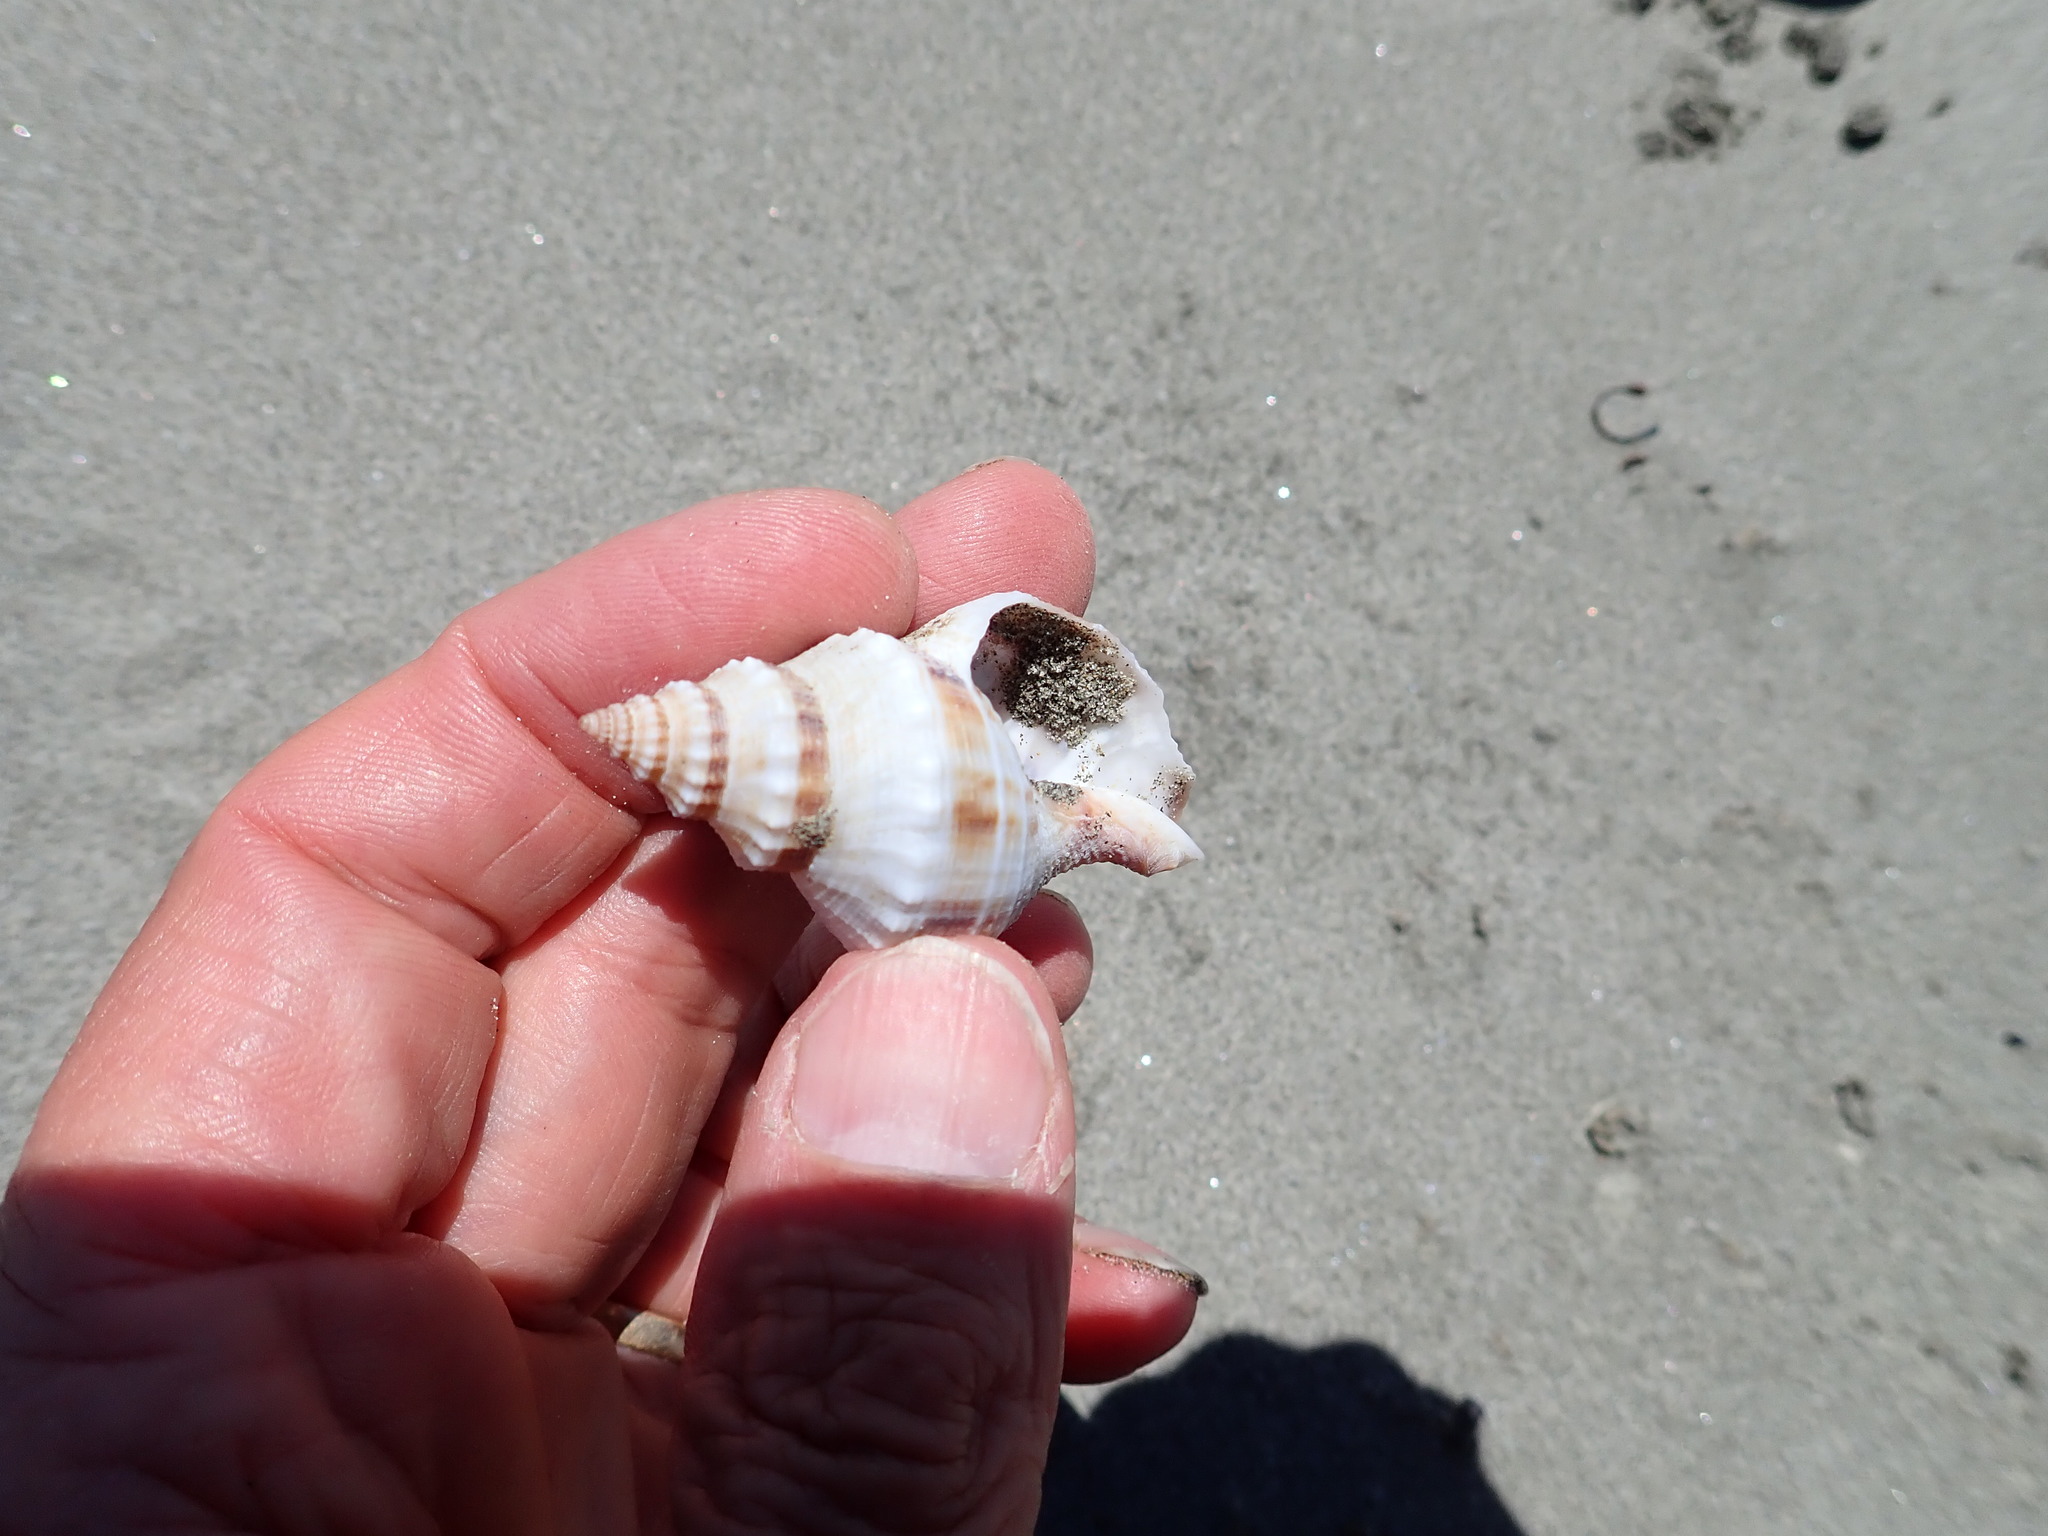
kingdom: Animalia
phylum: Mollusca
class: Gastropoda
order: Neogastropoda
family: Prosiphonidae
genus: Austrofusus
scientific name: Austrofusus glans
